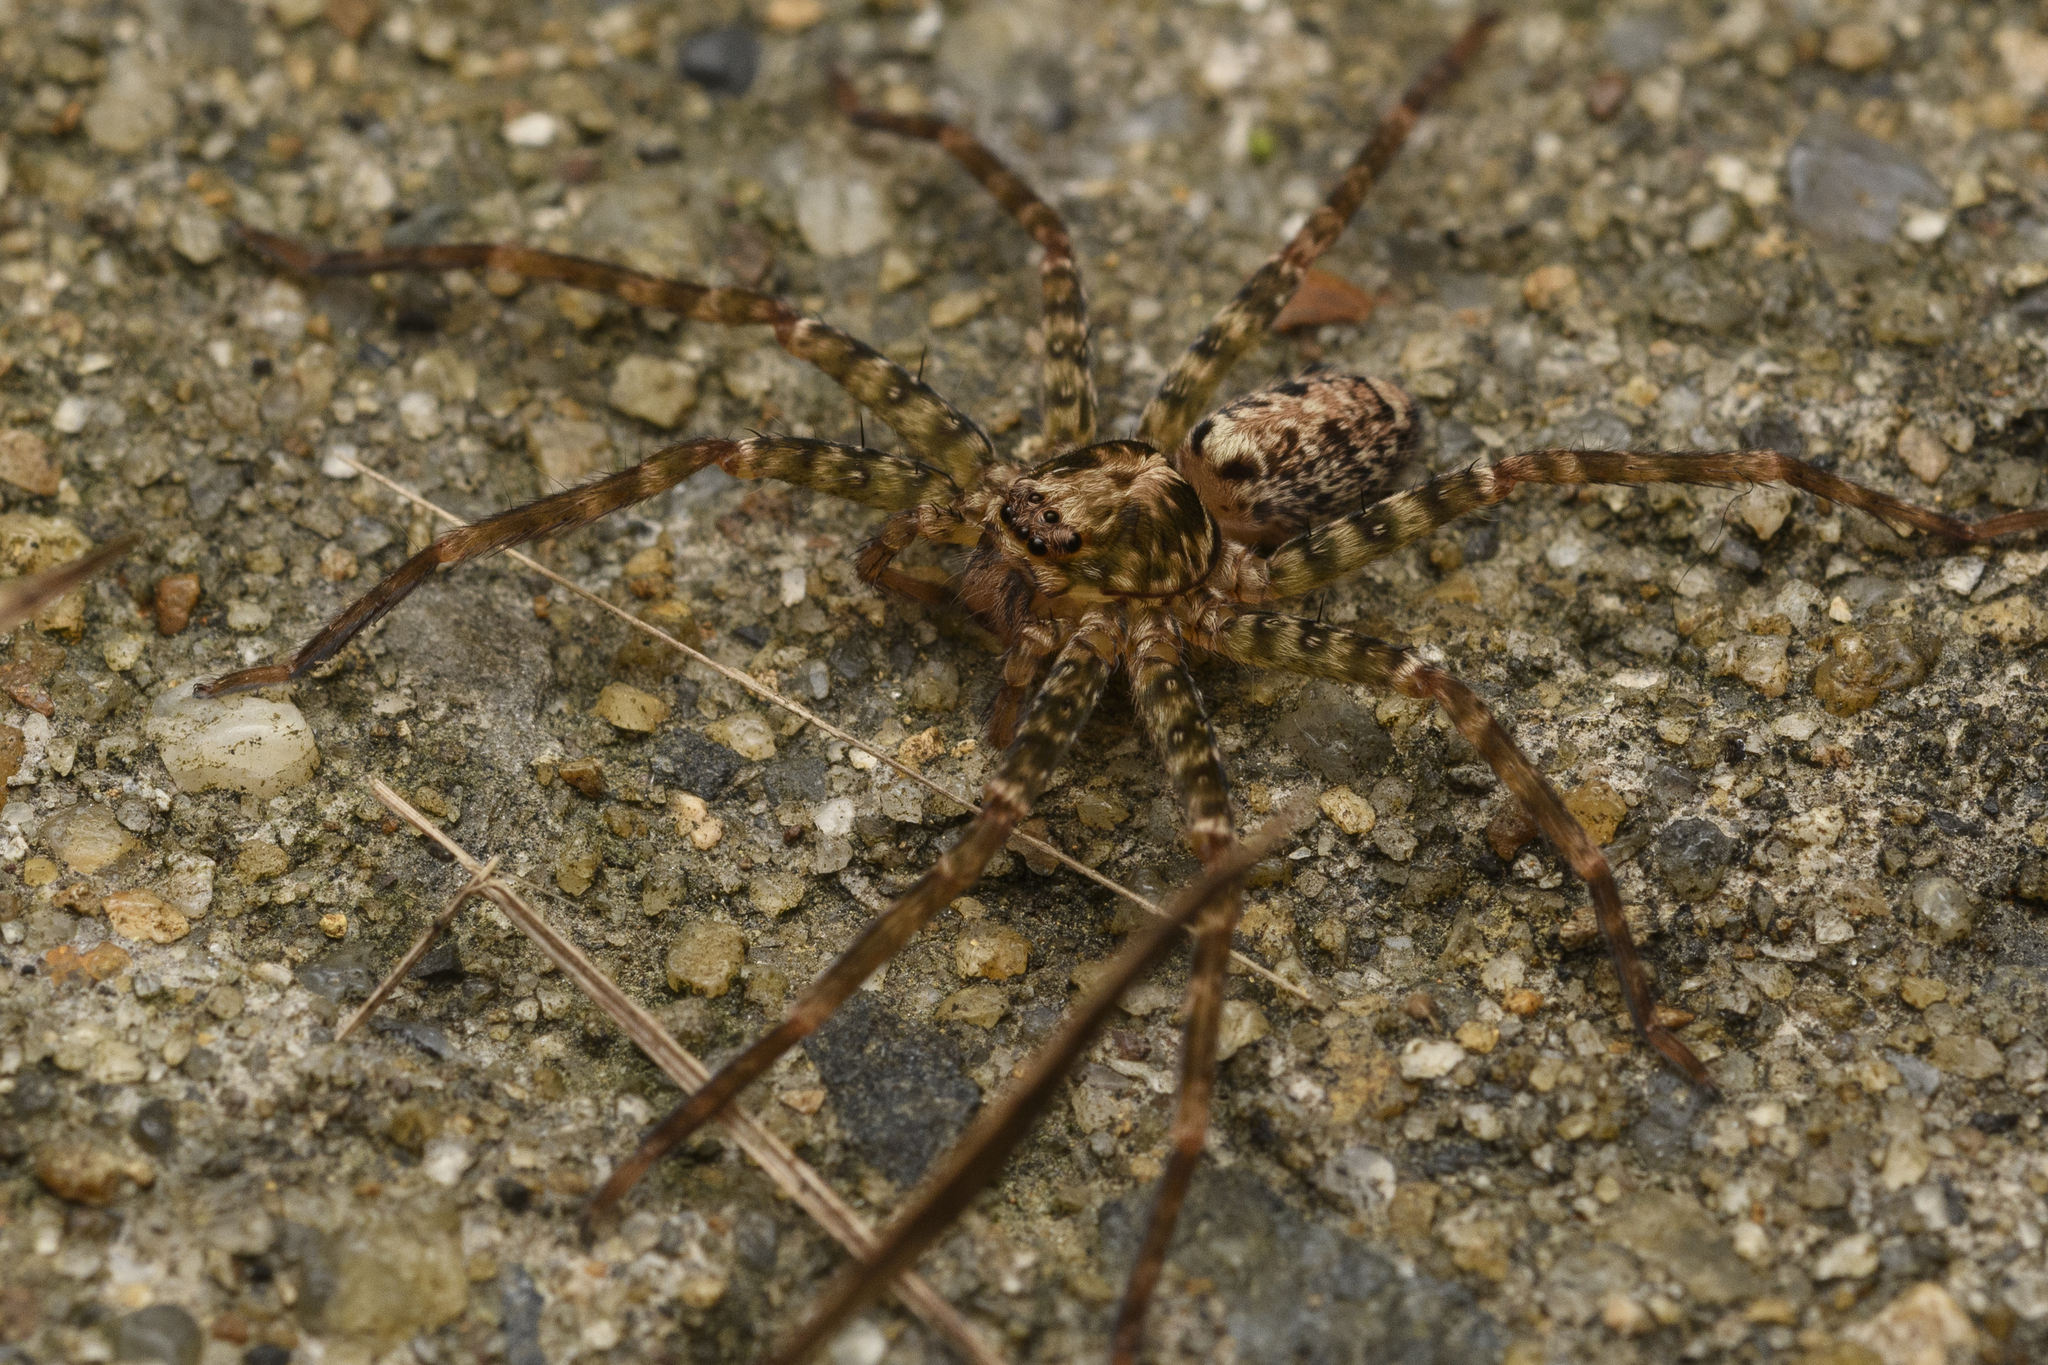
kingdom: Animalia
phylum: Arthropoda
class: Arachnida
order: Araneae
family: Sparassidae
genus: Heteropoda
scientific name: Heteropoda amphora
